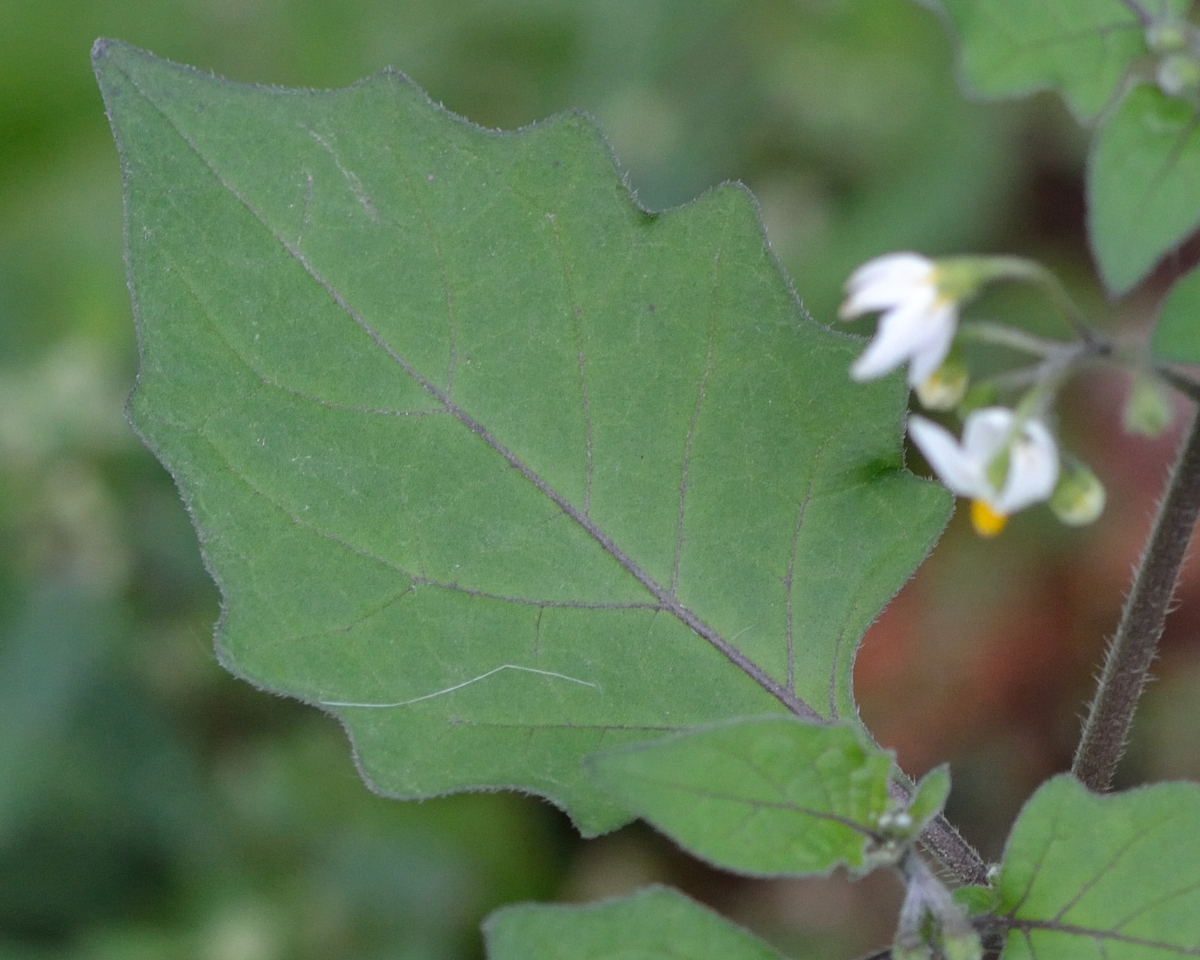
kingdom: Plantae
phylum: Tracheophyta
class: Magnoliopsida
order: Solanales
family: Solanaceae
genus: Solanum
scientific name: Solanum nigrum
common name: Black nightshade
